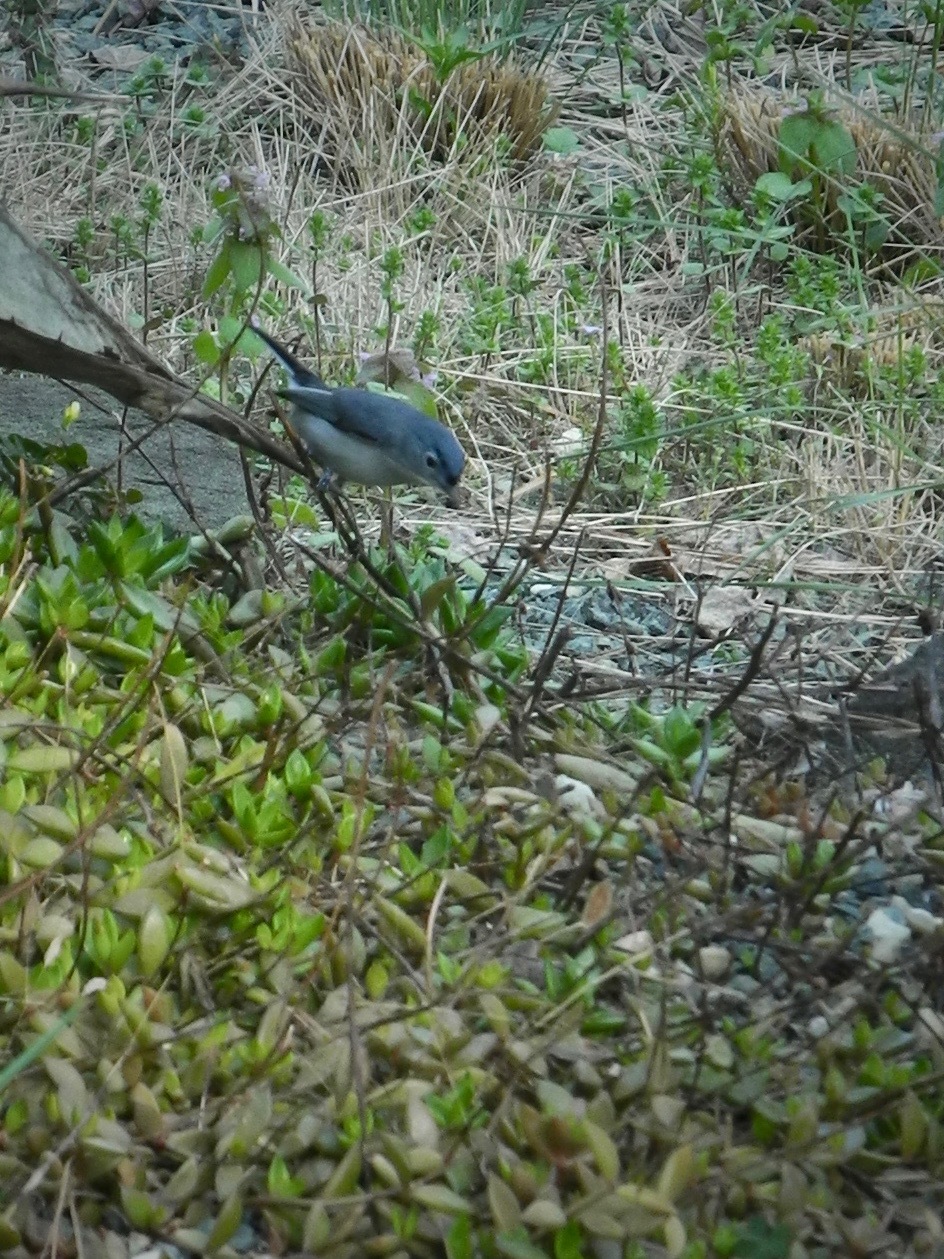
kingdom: Animalia
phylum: Chordata
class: Aves
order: Passeriformes
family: Polioptilidae
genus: Polioptila
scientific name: Polioptila caerulea
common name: Blue-gray gnatcatcher
